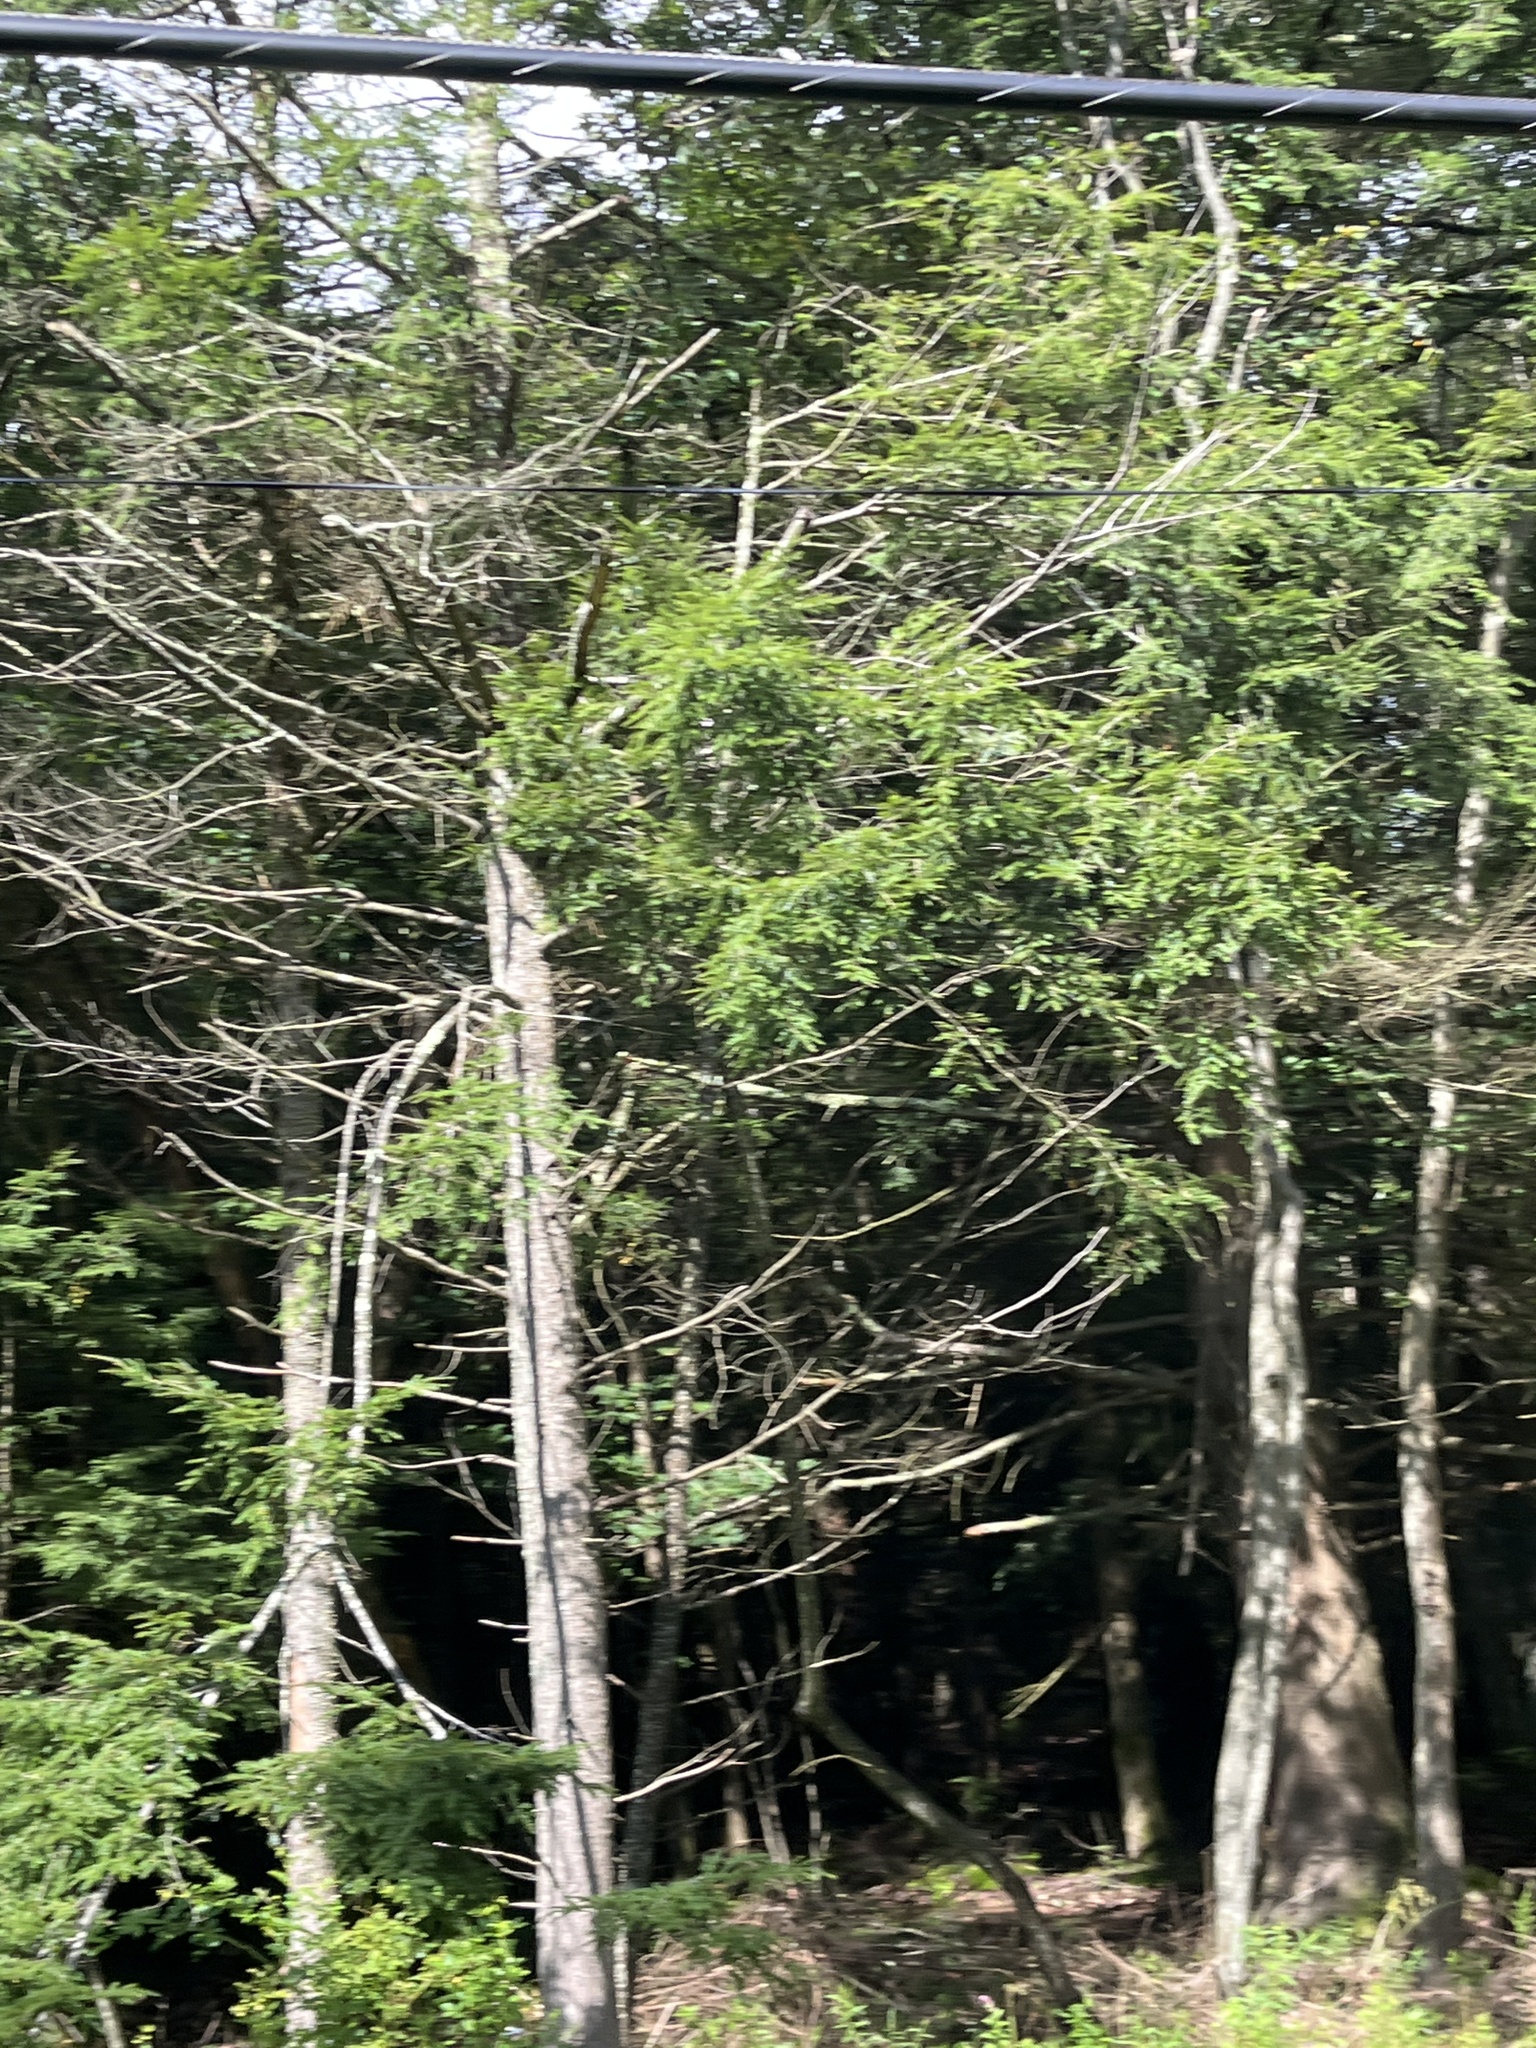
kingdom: Plantae
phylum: Tracheophyta
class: Pinopsida
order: Pinales
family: Pinaceae
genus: Tsuga
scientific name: Tsuga canadensis
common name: Eastern hemlock
